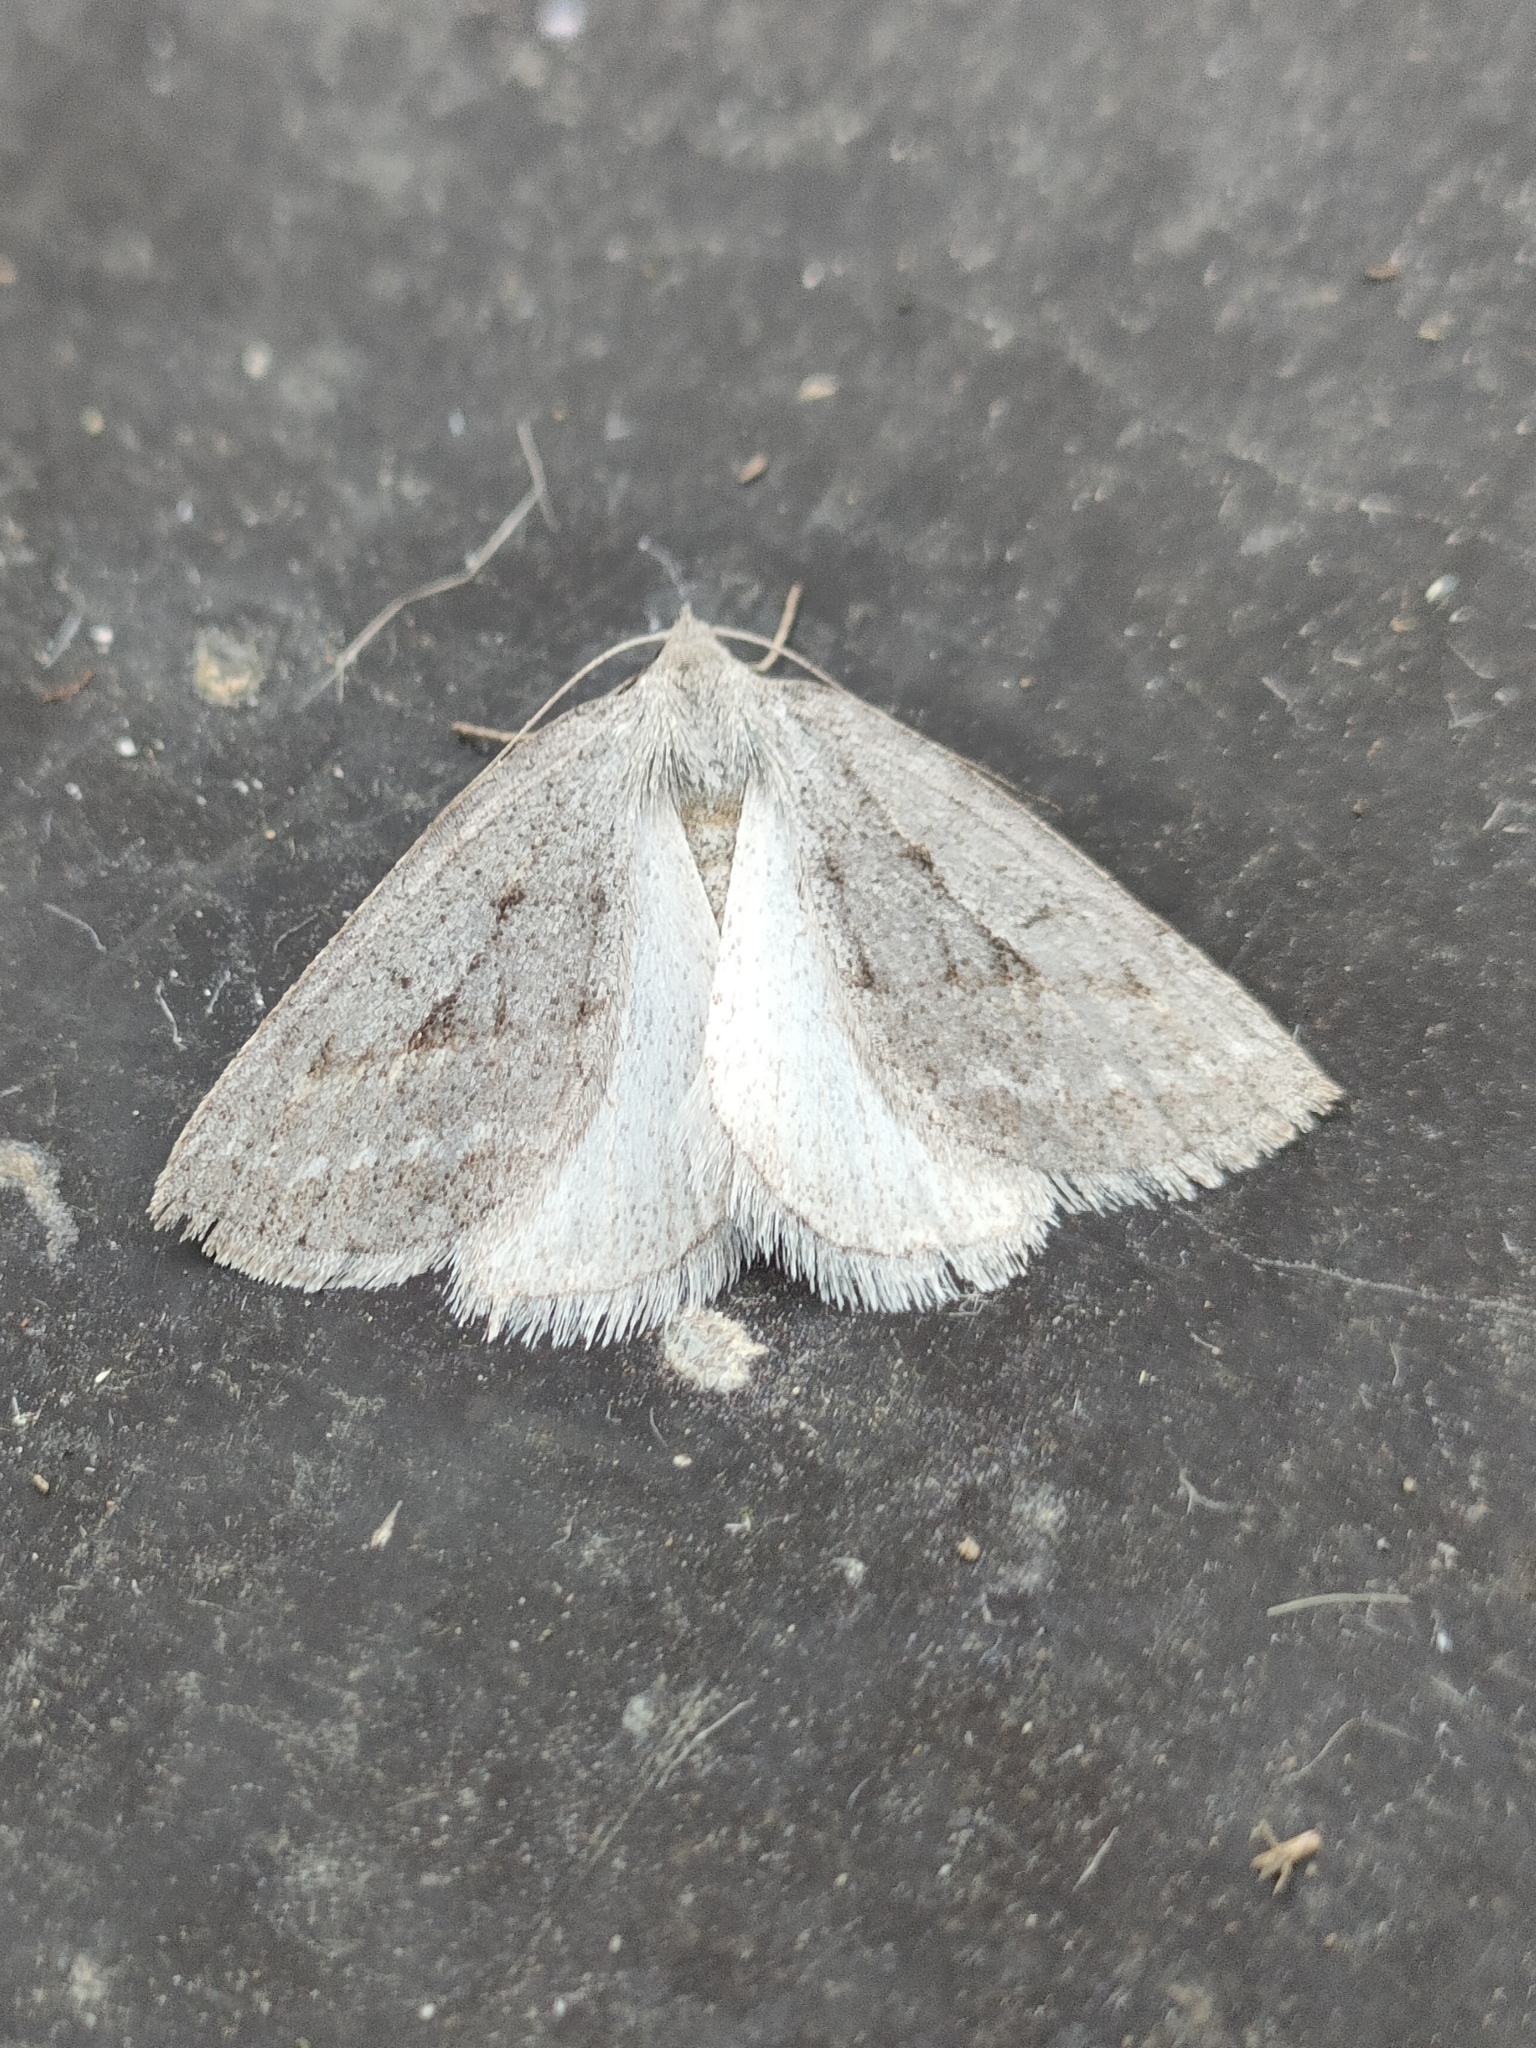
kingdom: Animalia
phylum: Arthropoda
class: Insecta
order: Lepidoptera
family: Geometridae
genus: Chemerina
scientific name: Chemerina caliginearia
